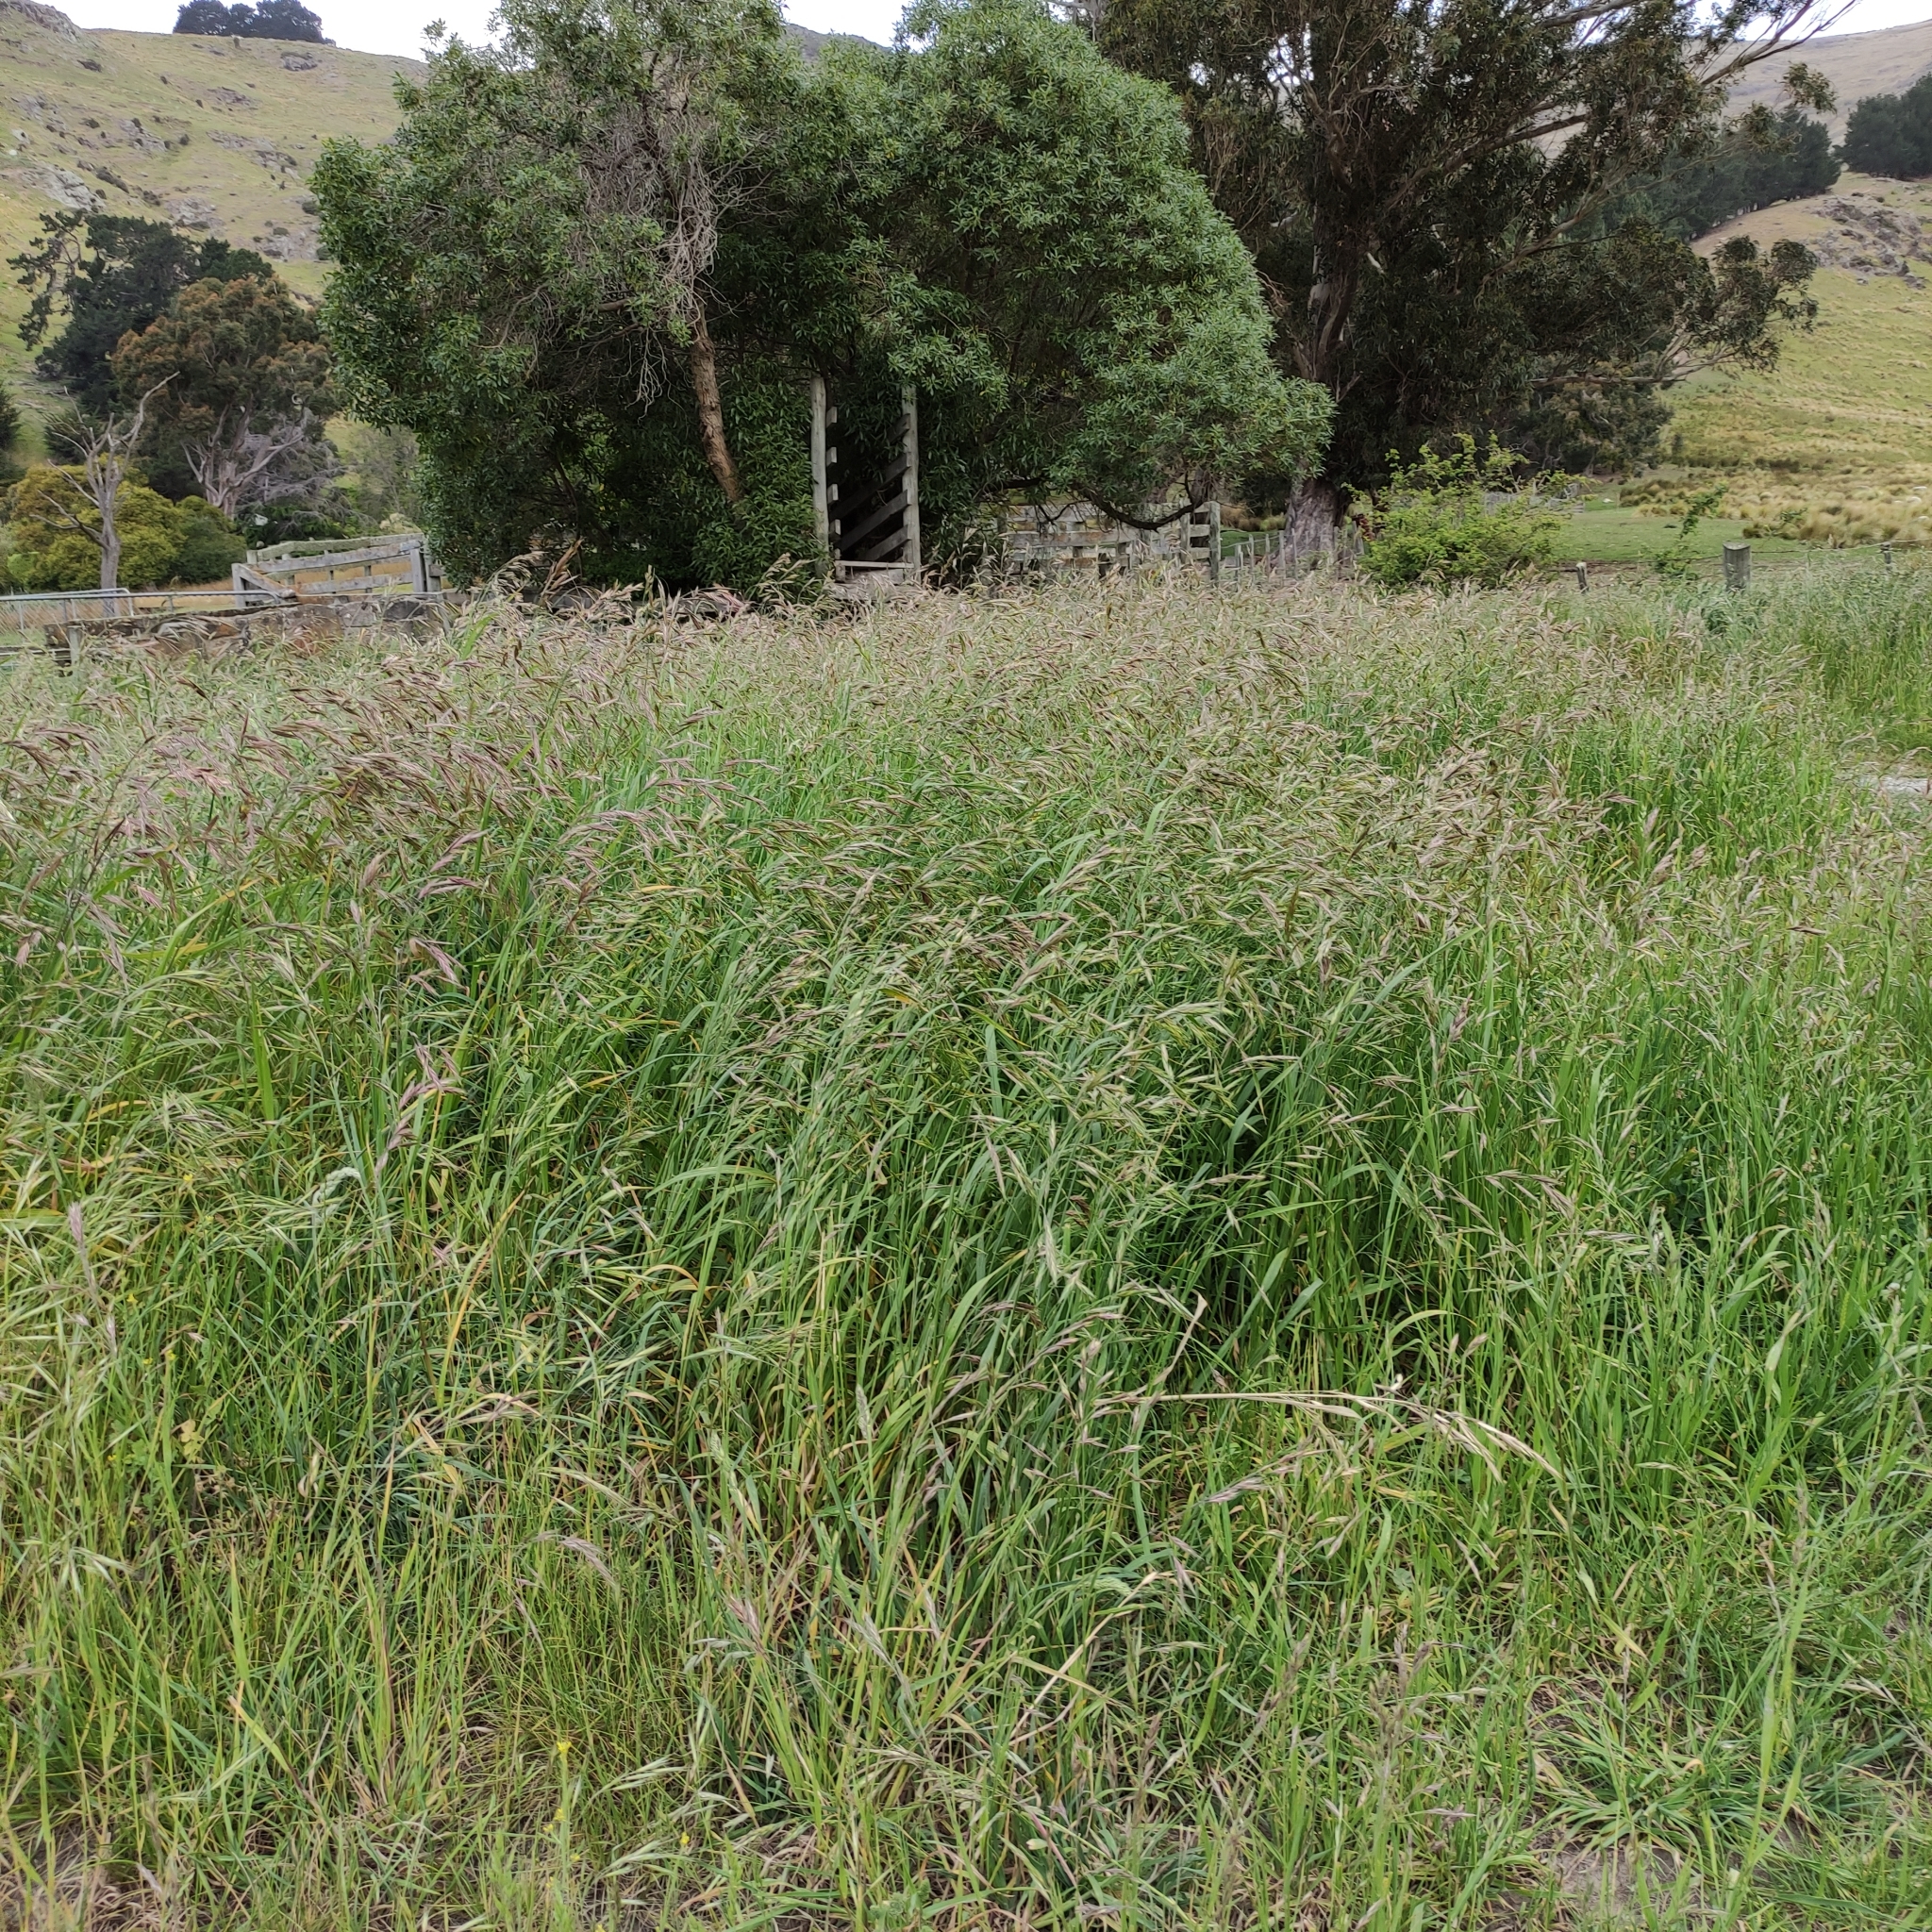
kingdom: Plantae
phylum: Tracheophyta
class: Liliopsida
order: Poales
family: Poaceae
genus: Lolium
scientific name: Lolium arundinaceum
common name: Reed fescue
